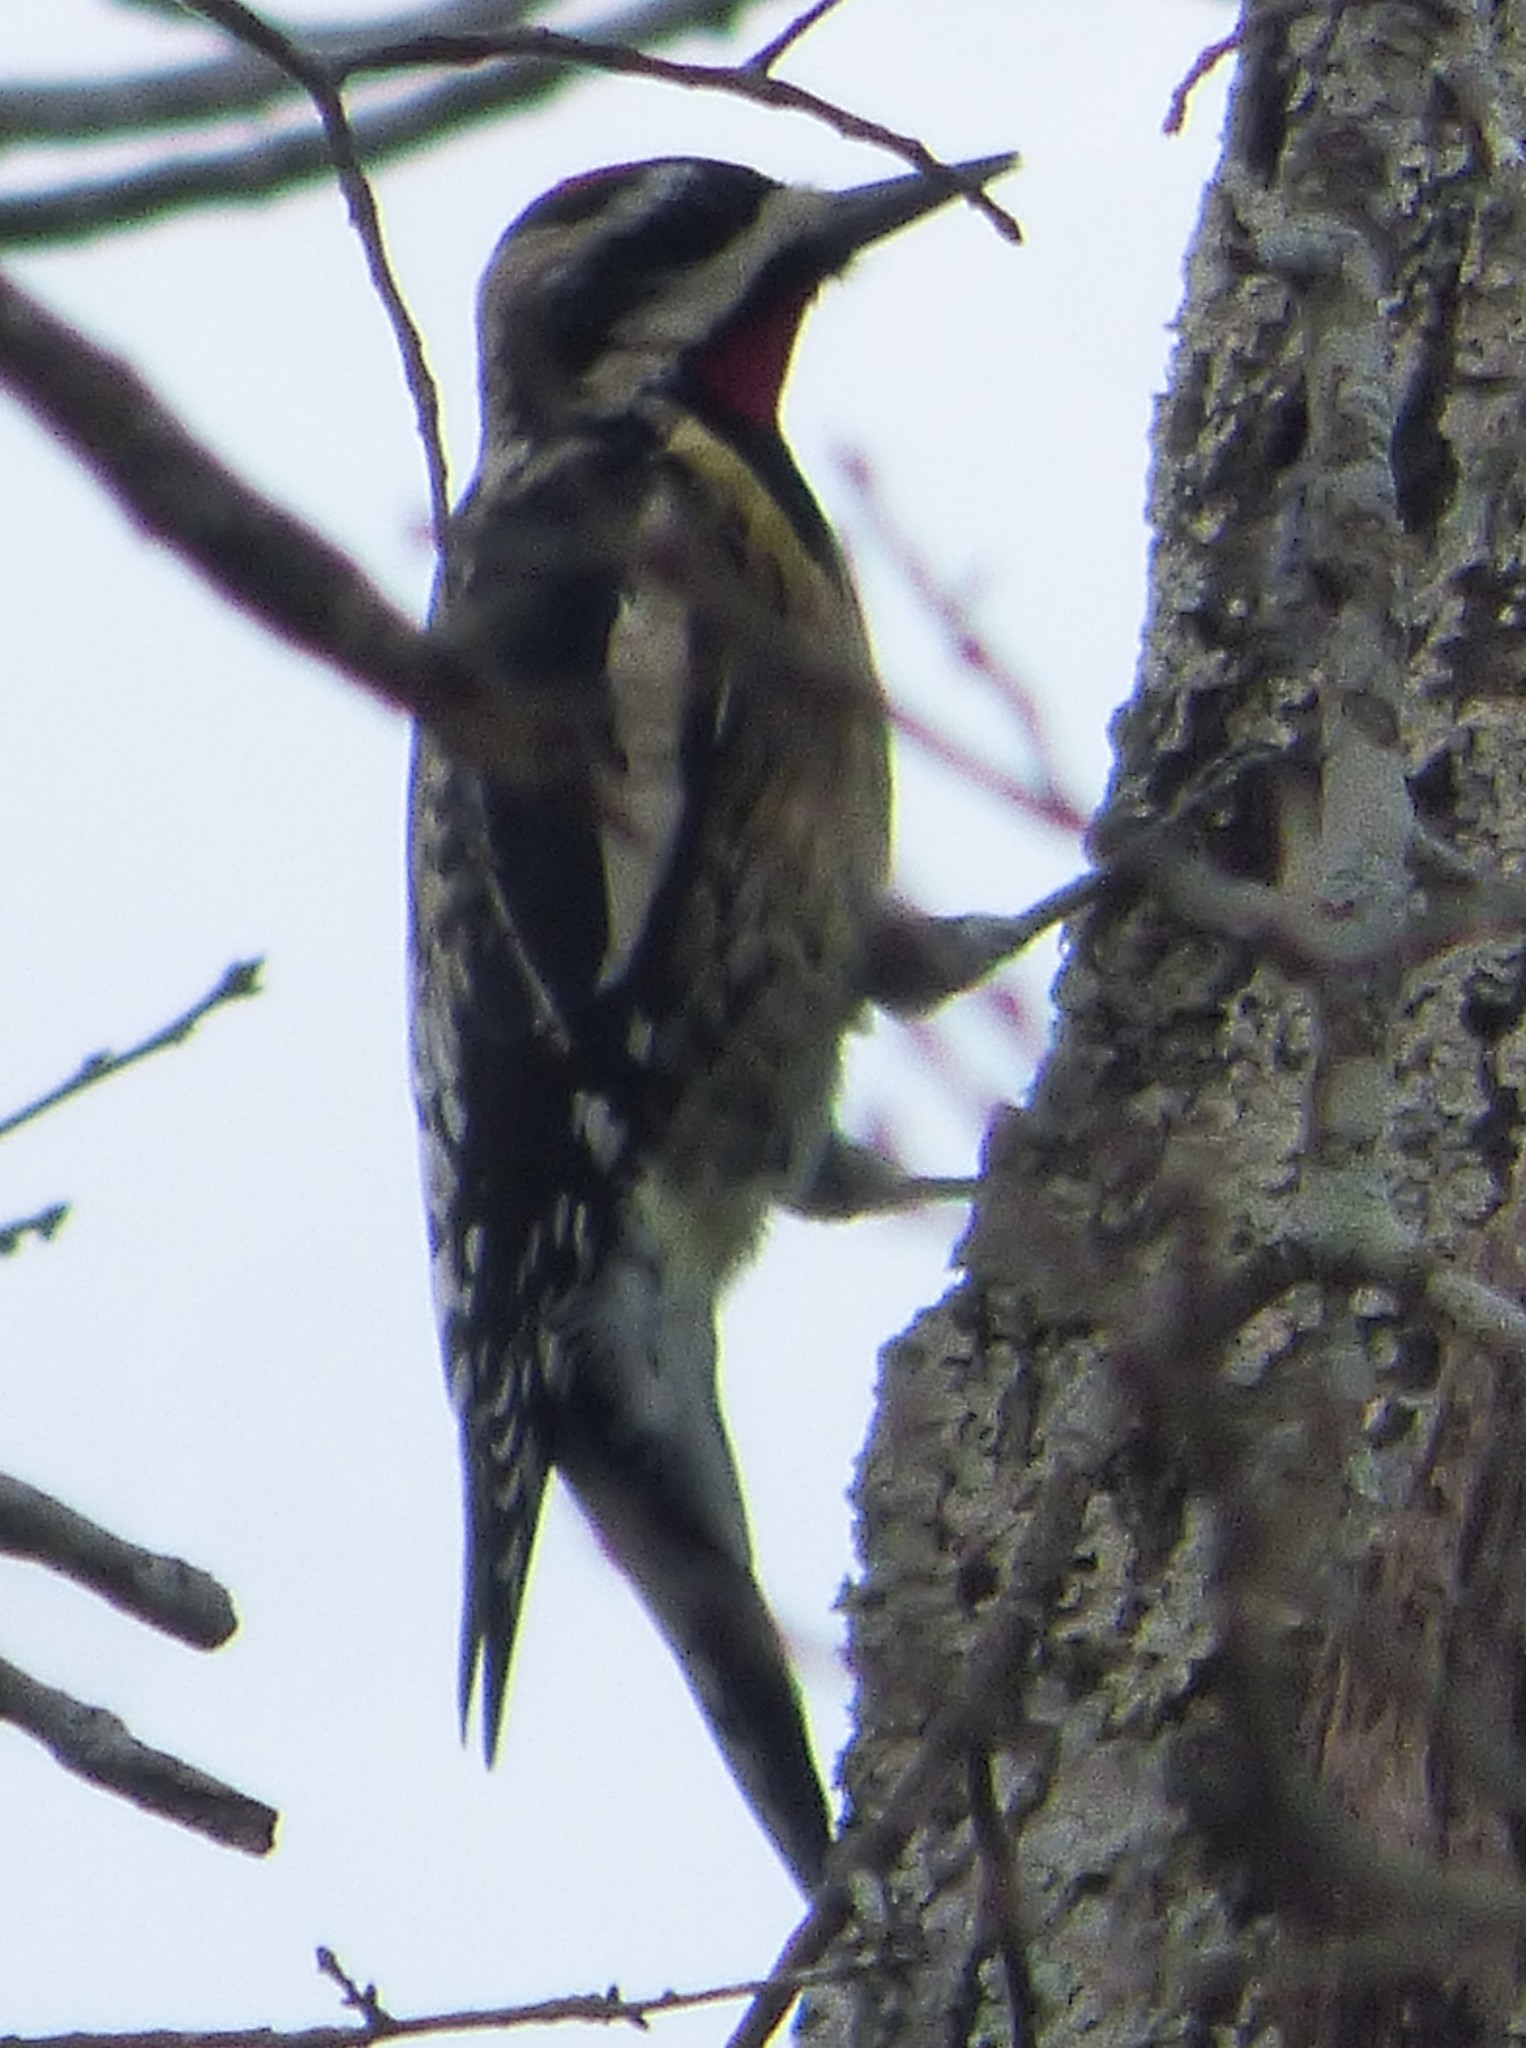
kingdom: Animalia
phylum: Chordata
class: Aves
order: Piciformes
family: Picidae
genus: Sphyrapicus
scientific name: Sphyrapicus varius
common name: Yellow-bellied sapsucker
